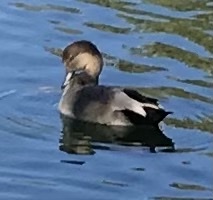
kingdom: Animalia
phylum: Chordata
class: Aves
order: Anseriformes
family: Anatidae
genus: Mareca
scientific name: Mareca strepera
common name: Gadwall
